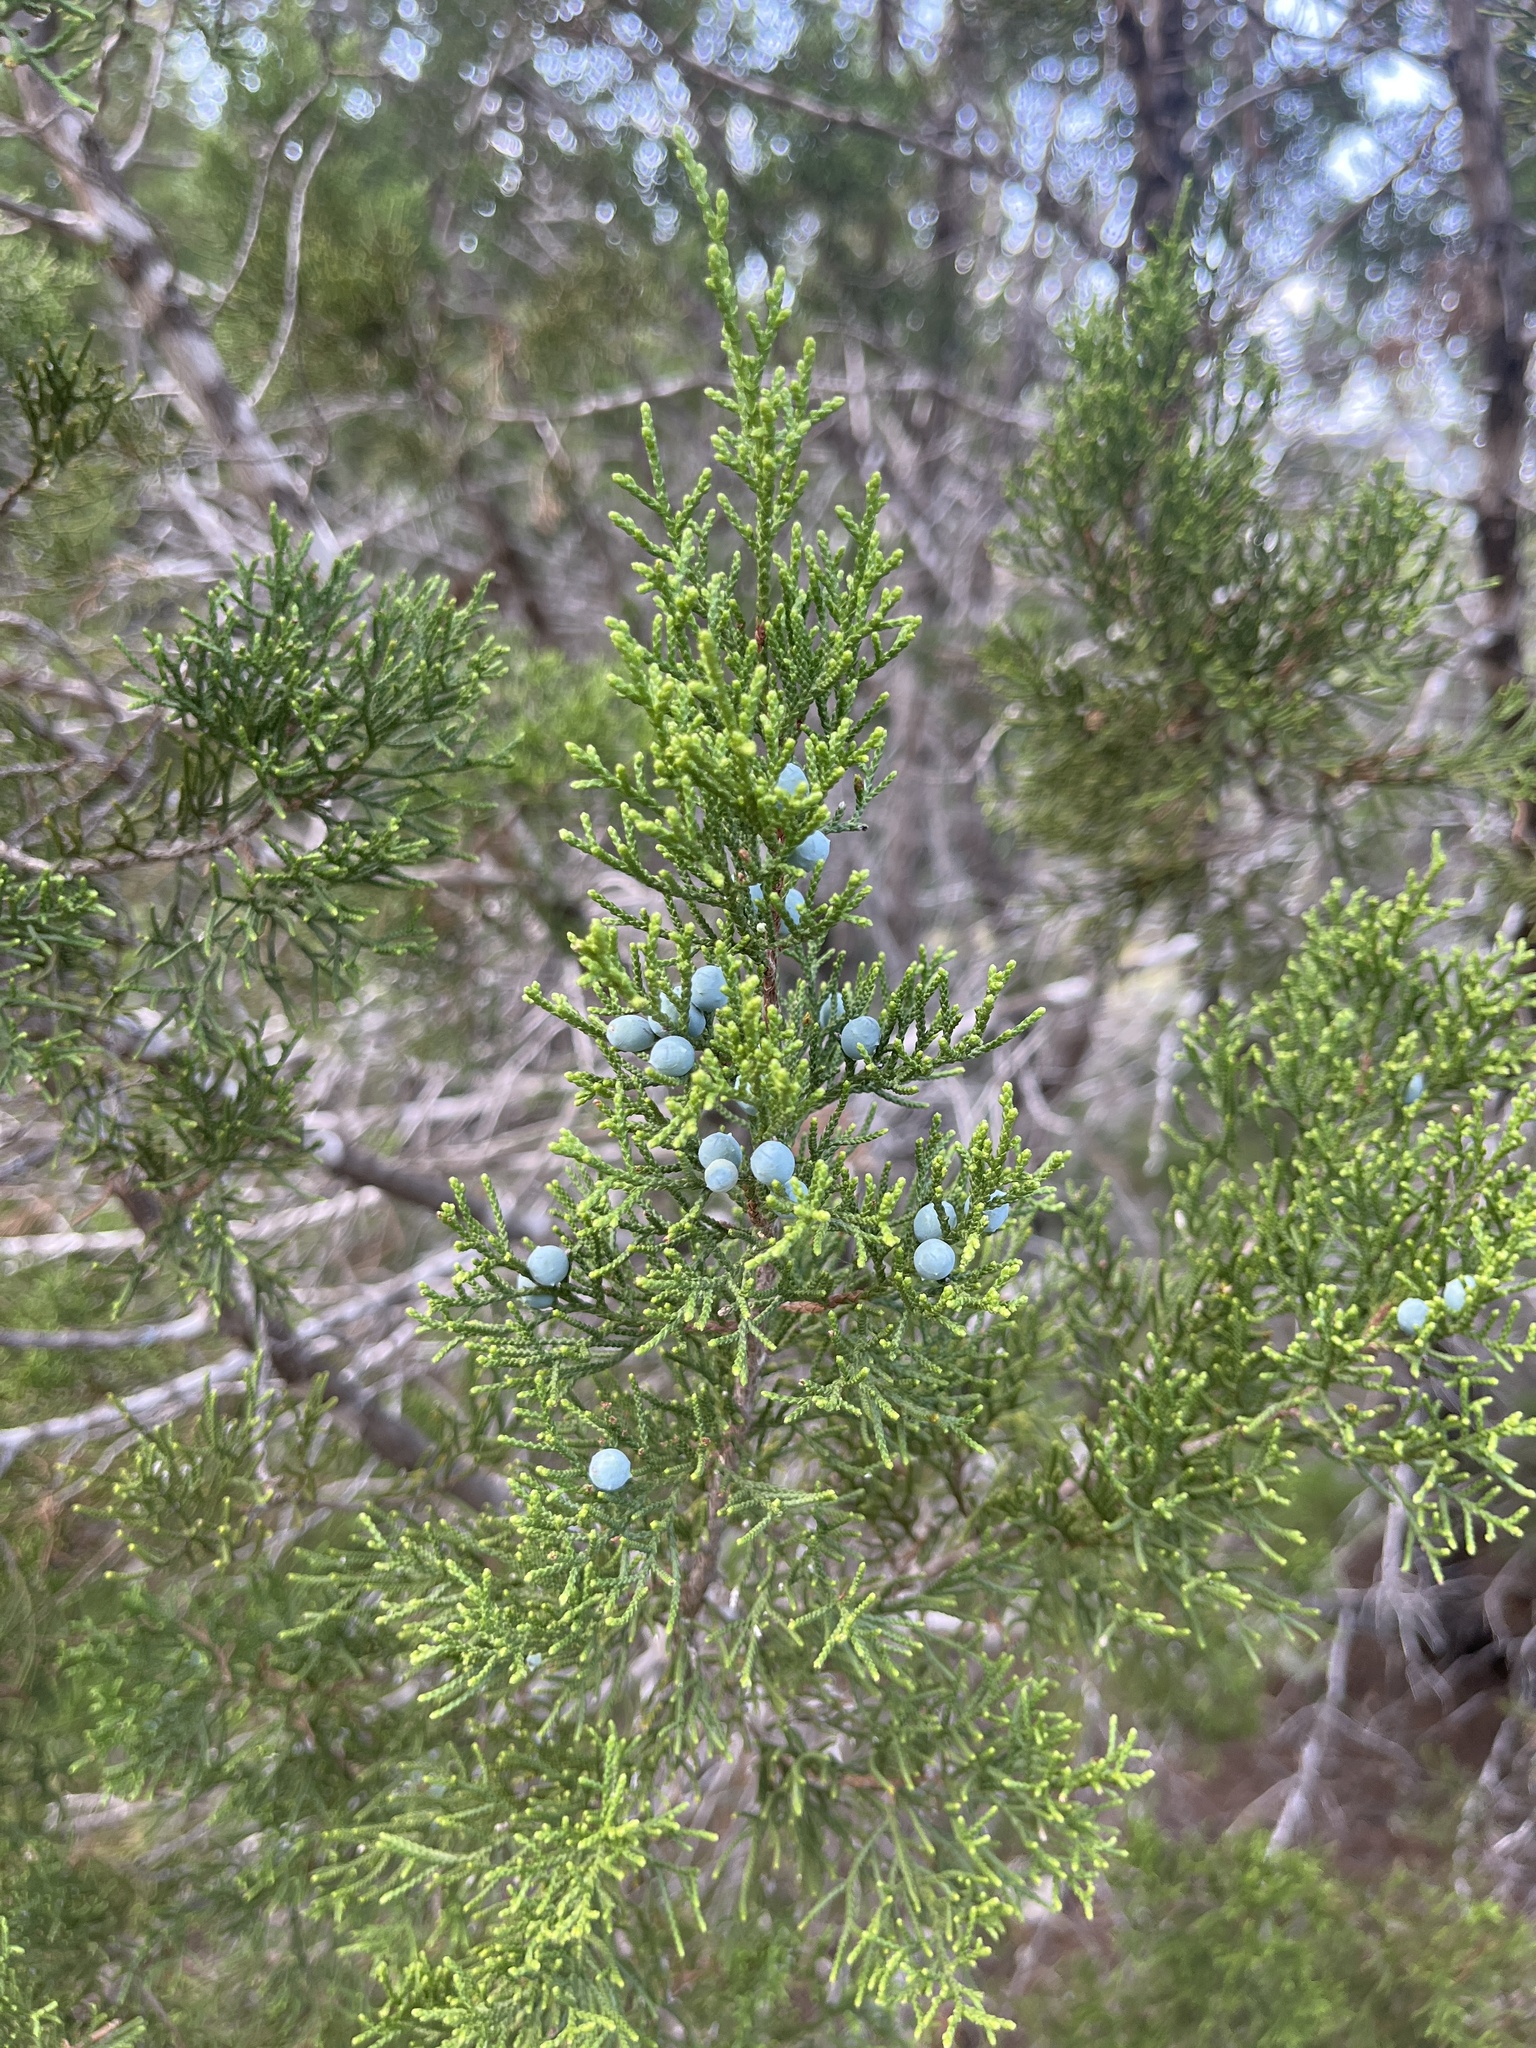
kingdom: Plantae
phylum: Tracheophyta
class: Pinopsida
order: Pinales
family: Cupressaceae
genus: Juniperus
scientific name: Juniperus ashei
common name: Mexican juniper
